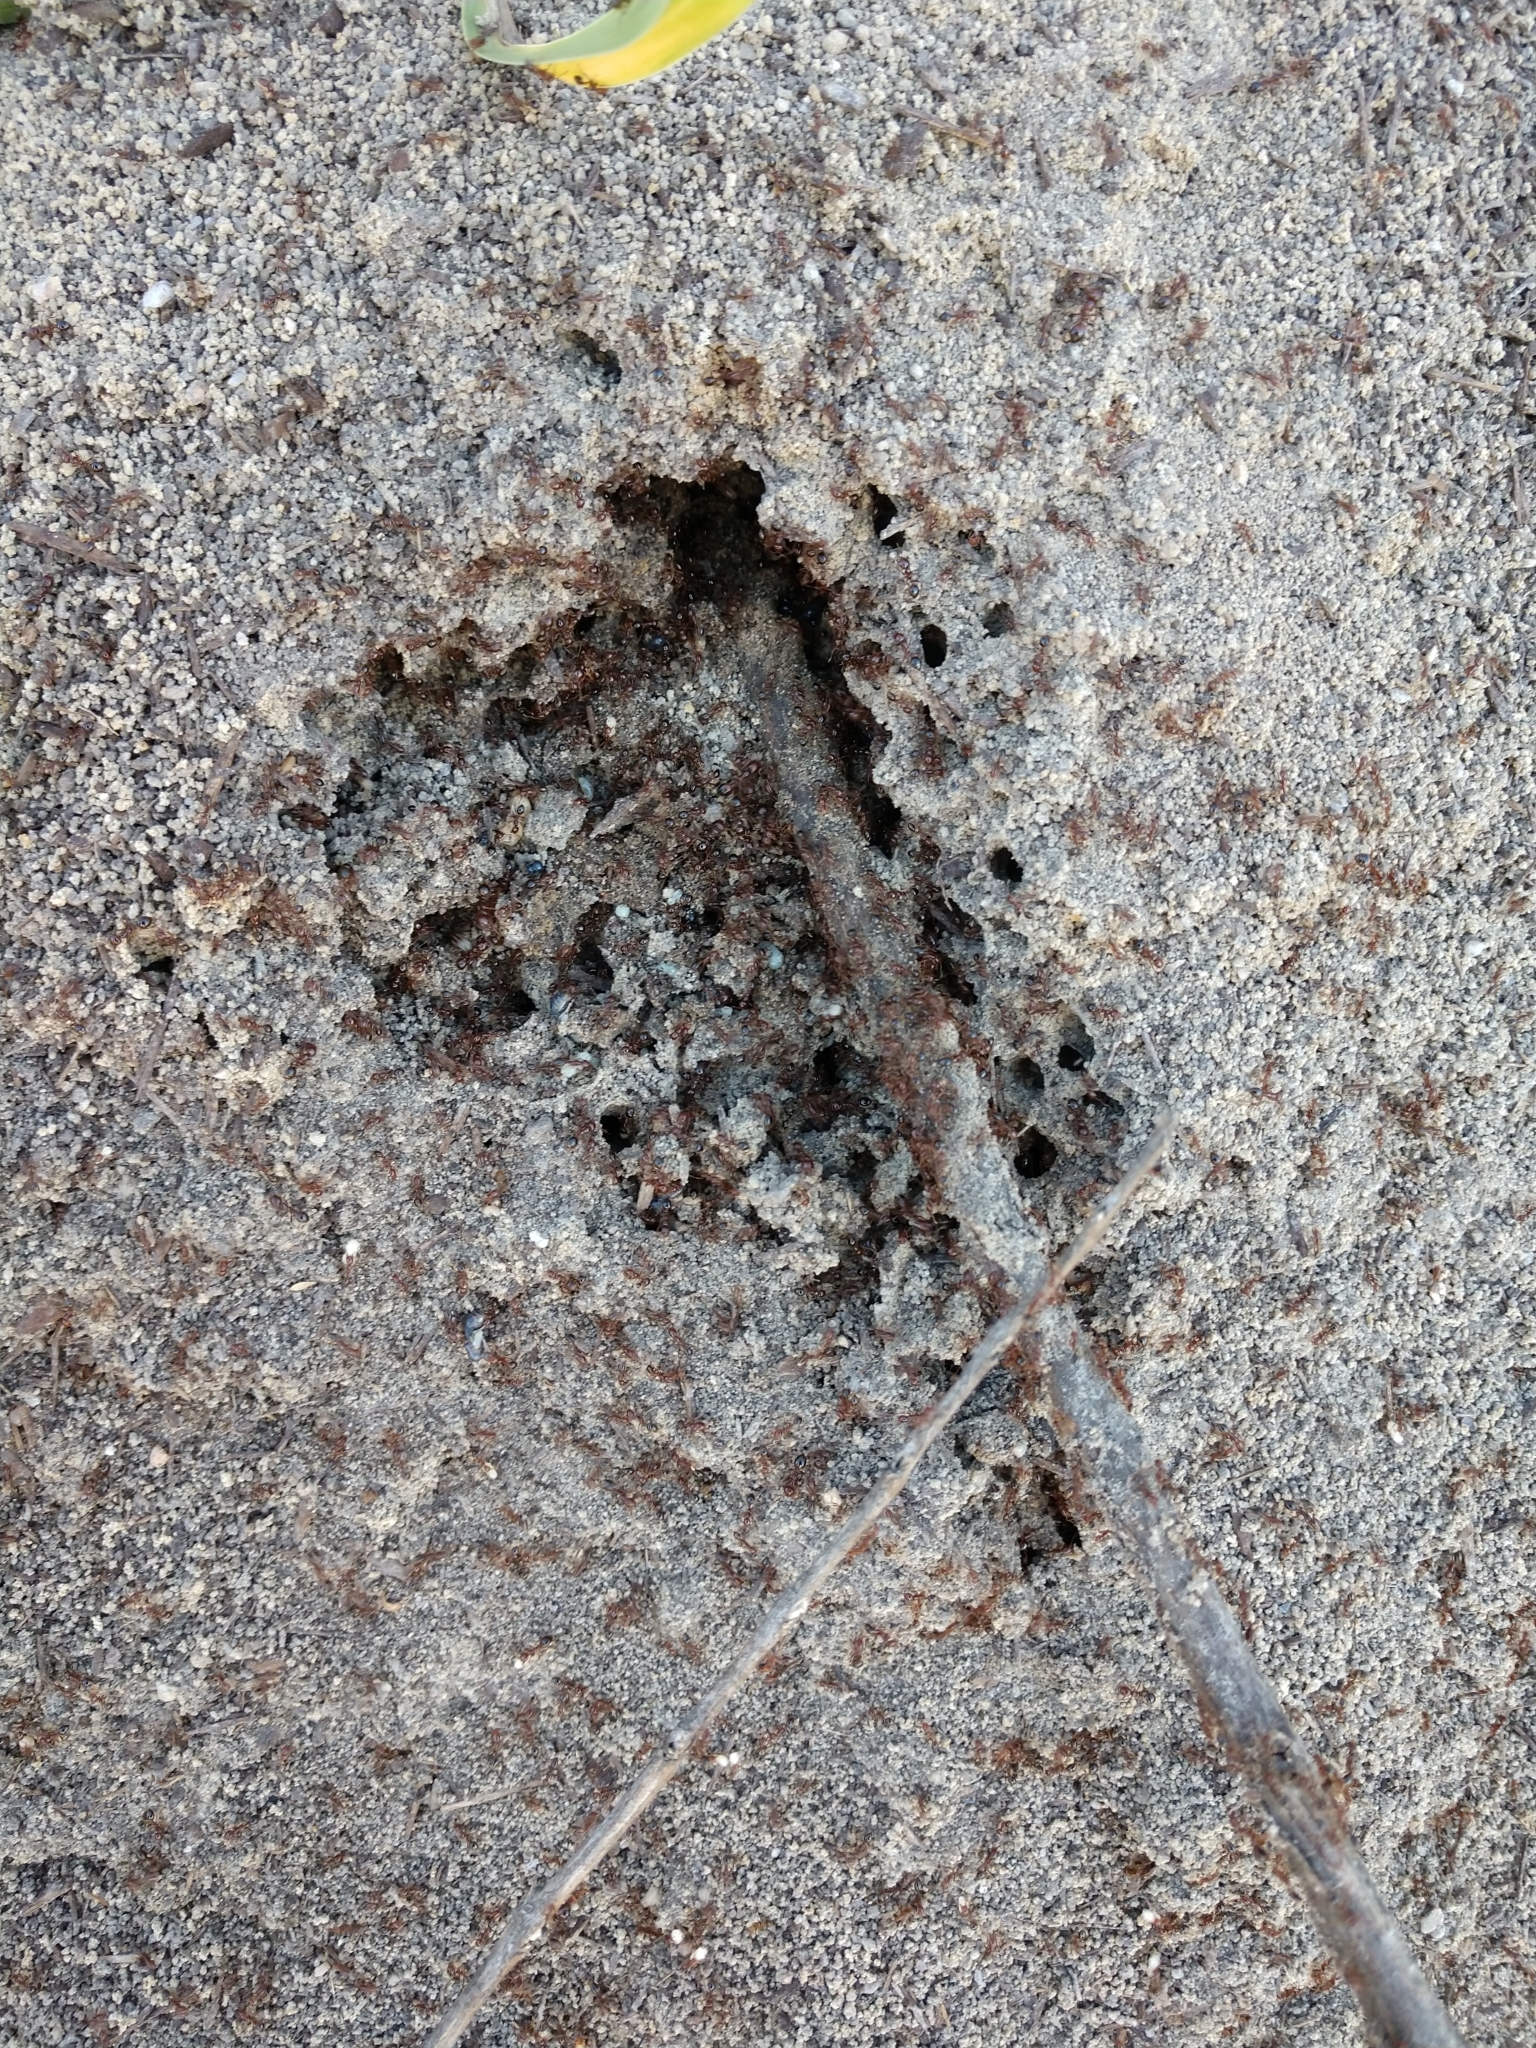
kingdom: Animalia
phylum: Arthropoda
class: Insecta
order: Hymenoptera
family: Formicidae
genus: Solenopsis
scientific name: Solenopsis invicta
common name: Red imported fire ant
